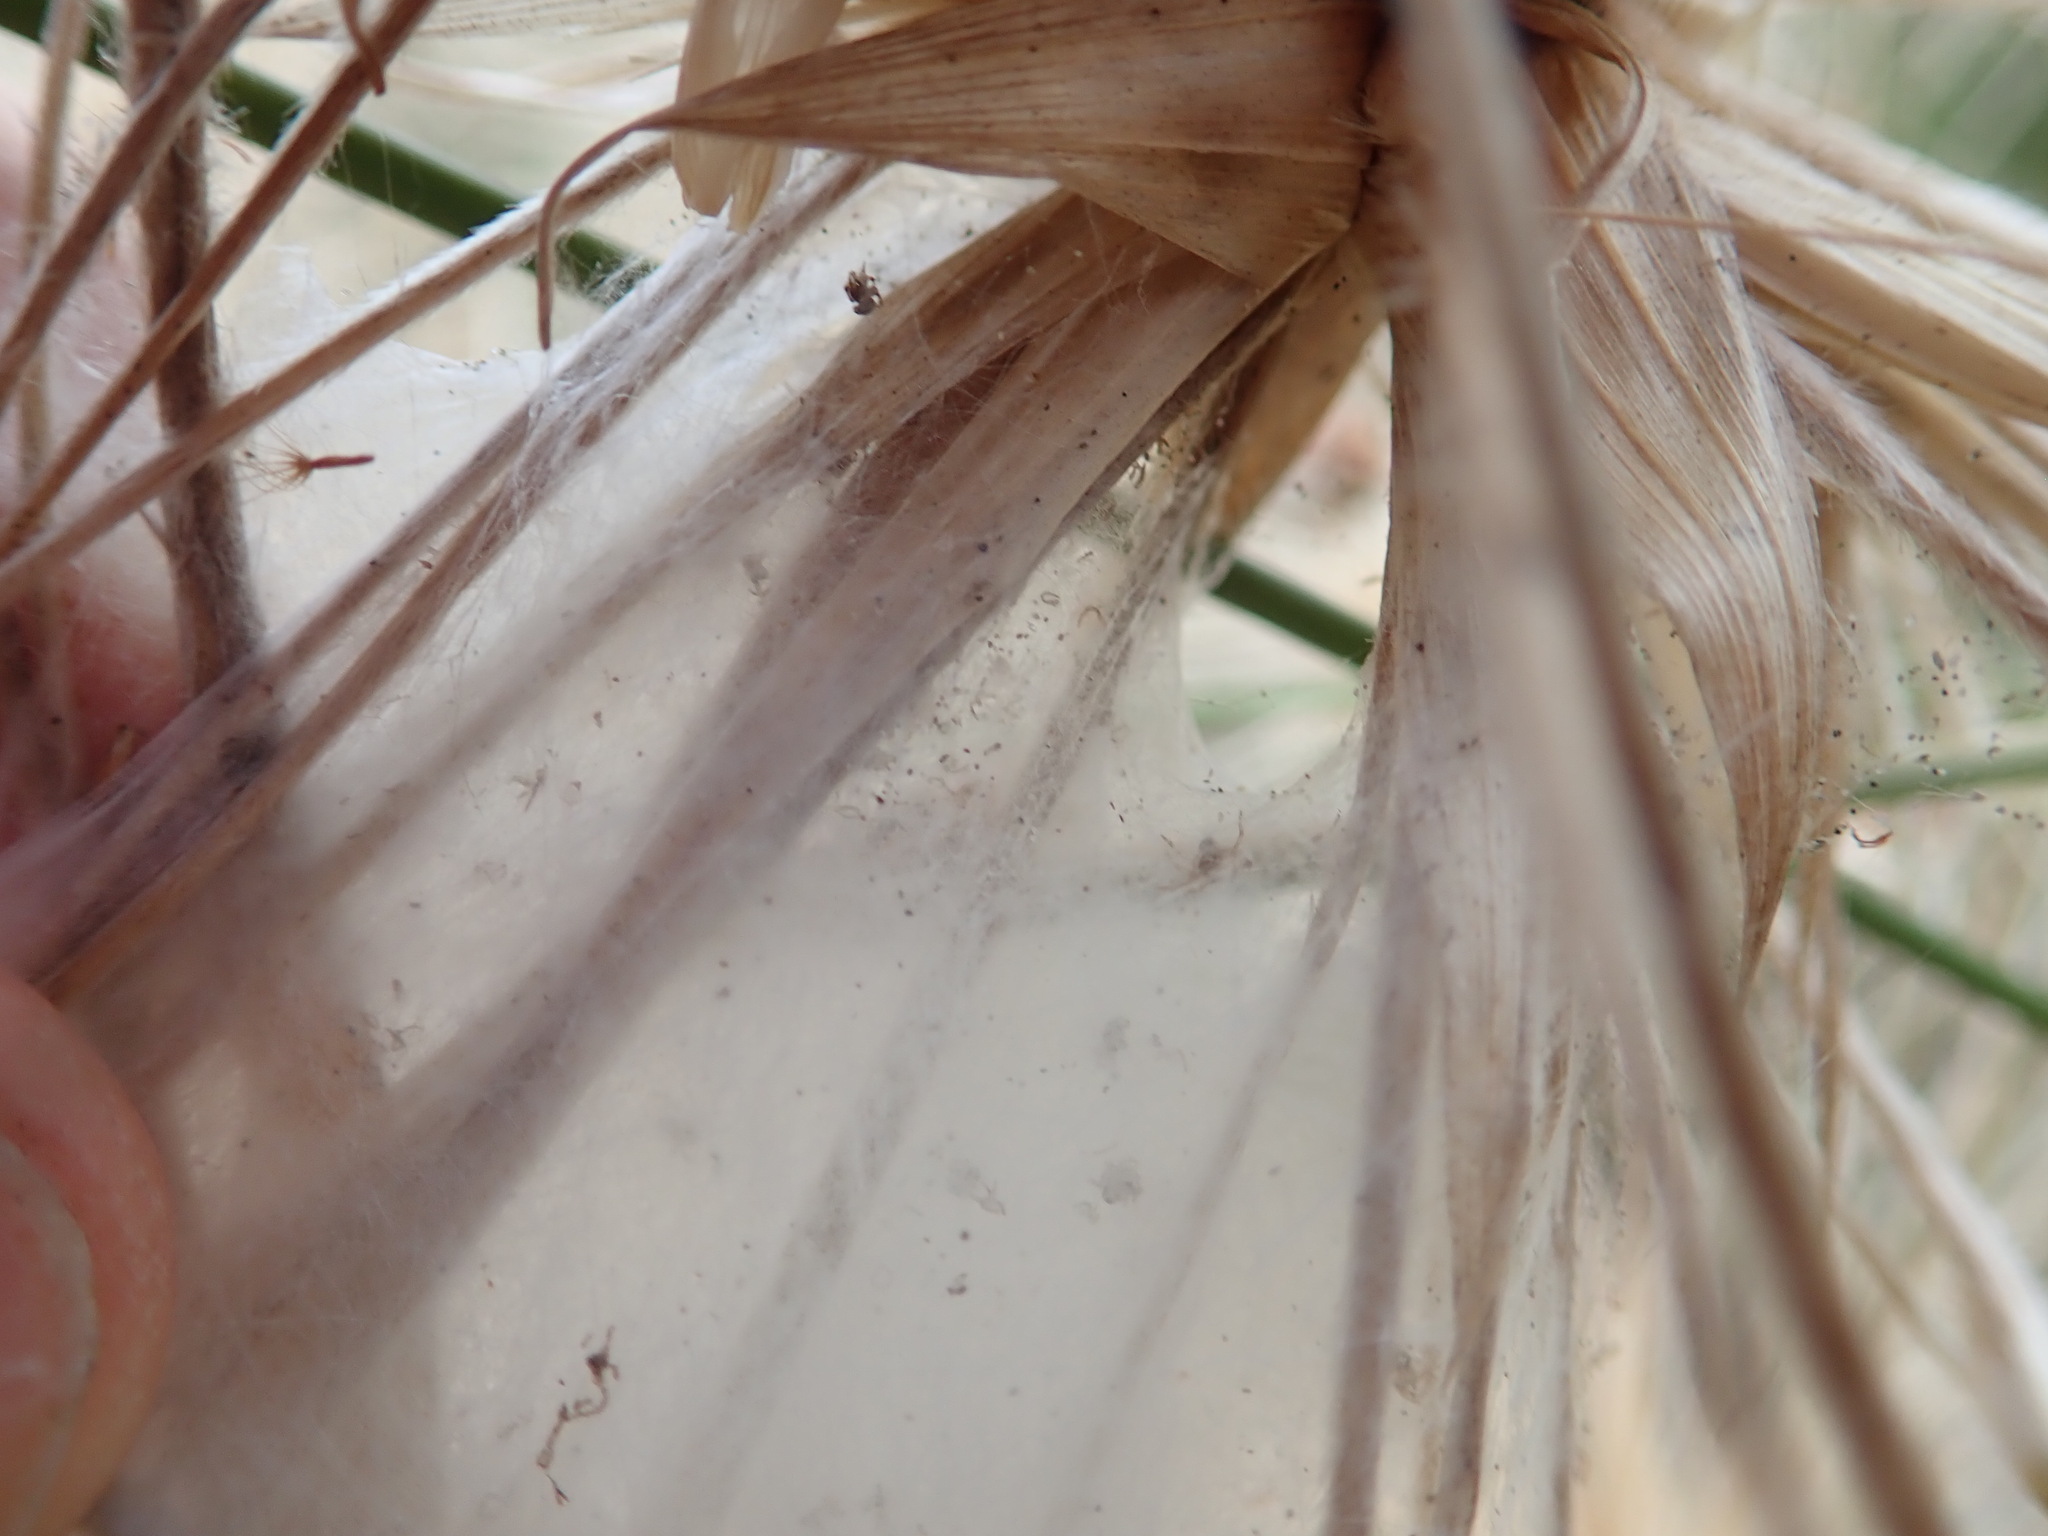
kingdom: Animalia
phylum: Arthropoda
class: Arachnida
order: Araneae
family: Pisauridae
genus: Dolomedes
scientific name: Dolomedes minor
